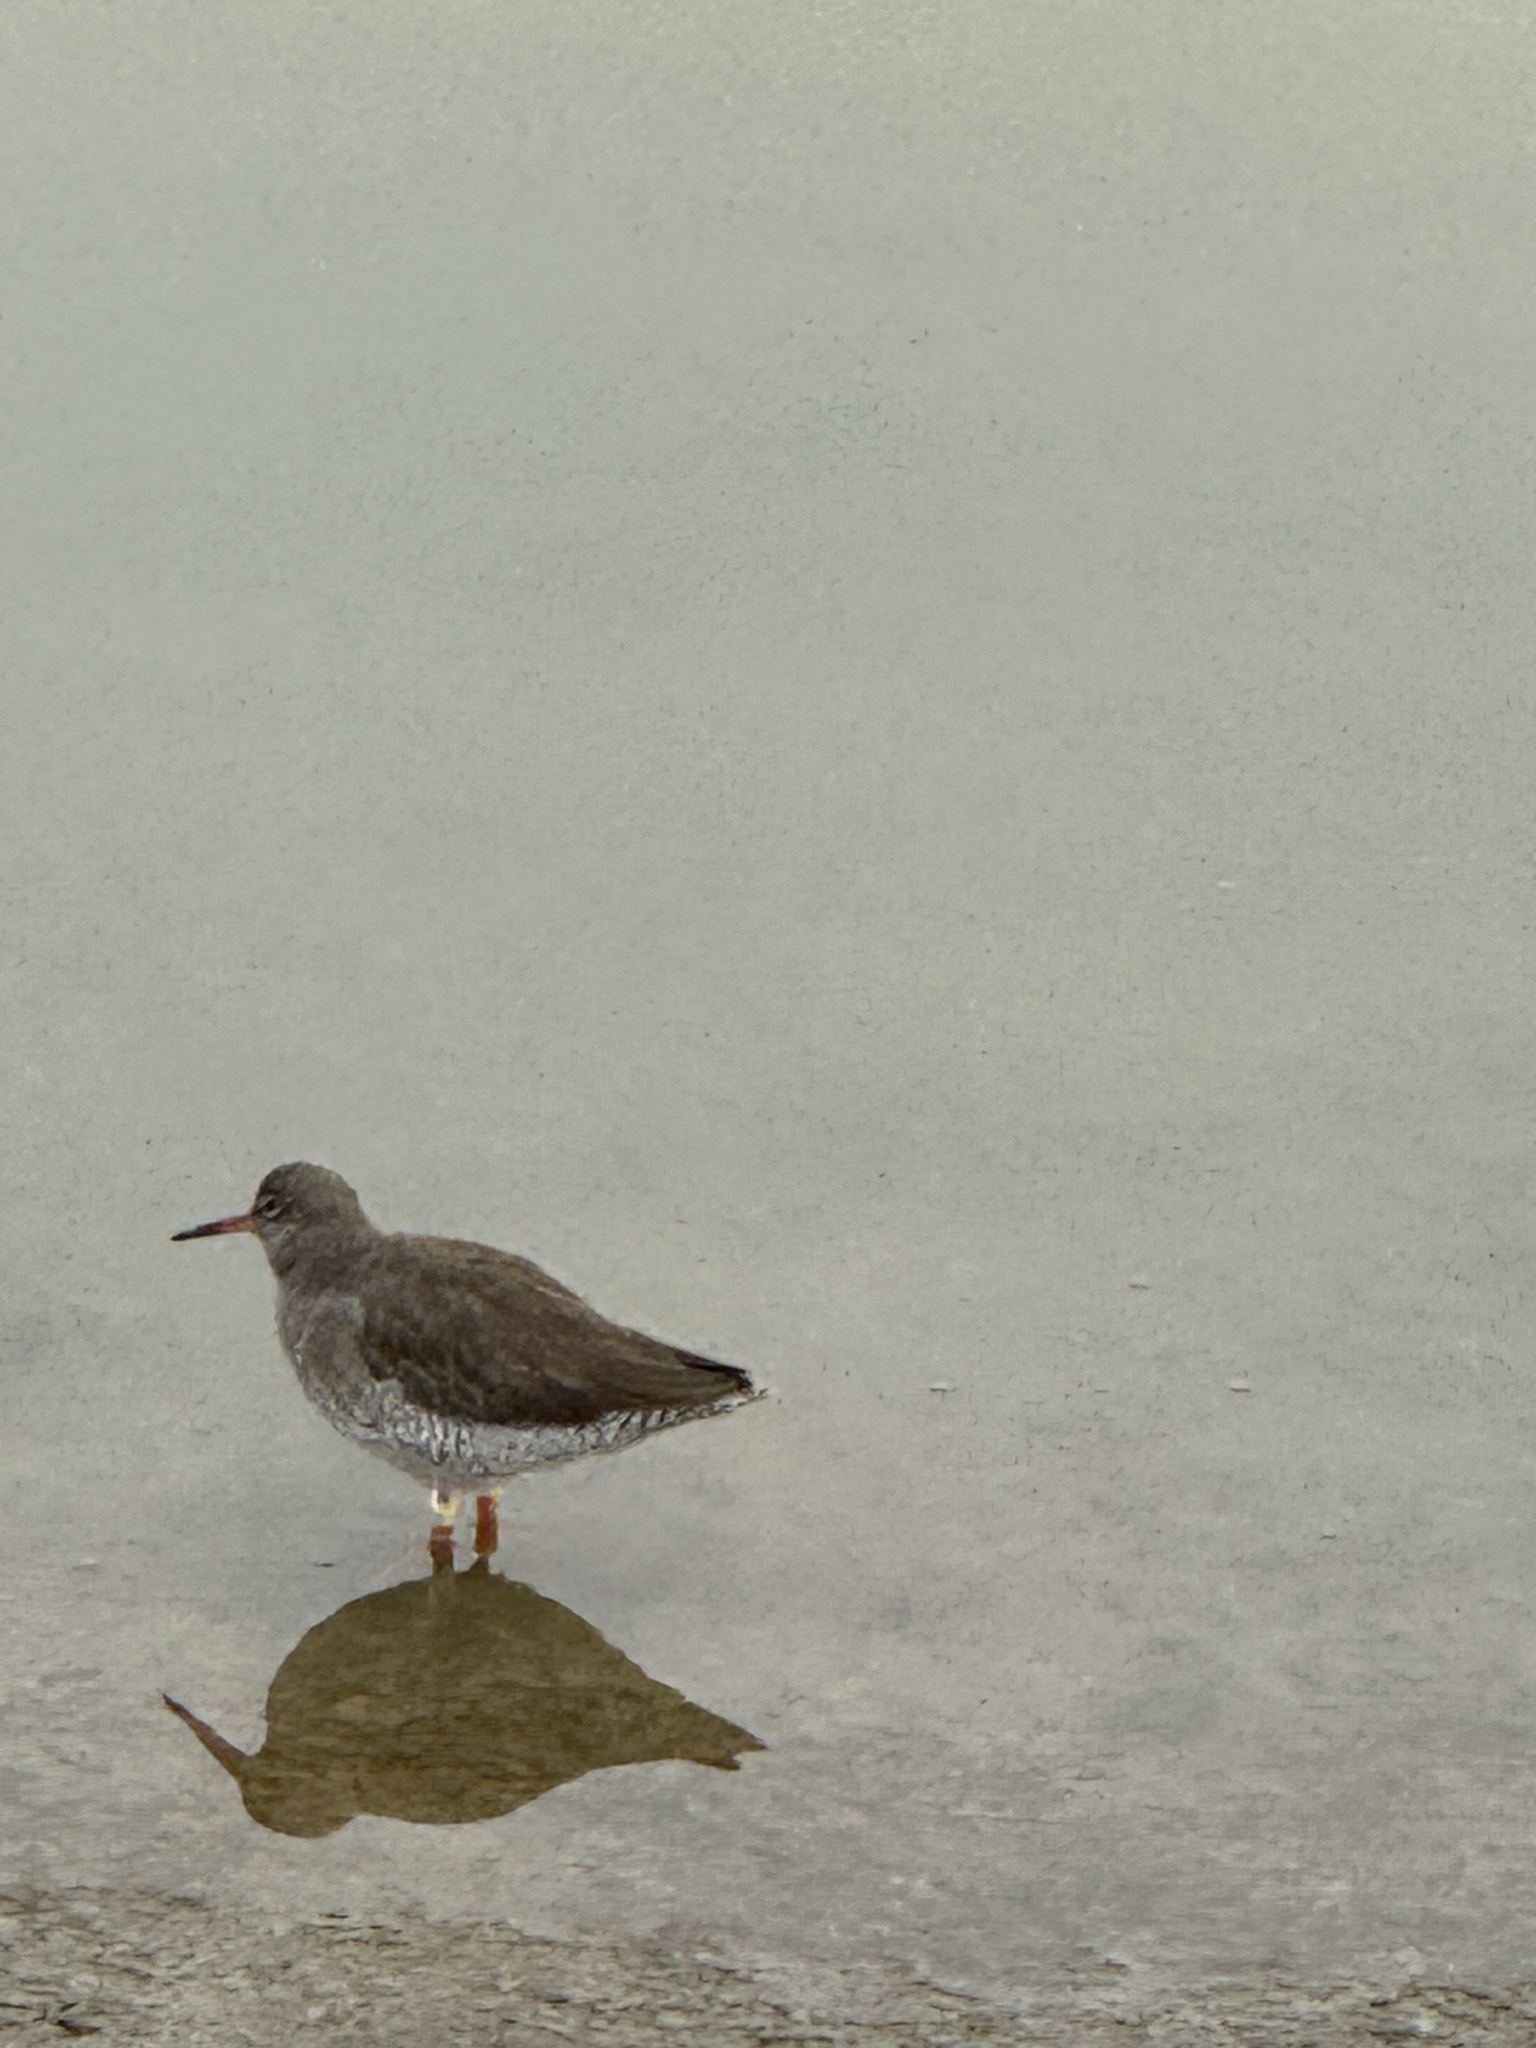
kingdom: Animalia
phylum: Chordata
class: Aves
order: Charadriiformes
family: Scolopacidae
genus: Tringa
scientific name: Tringa totanus
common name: Common redshank
